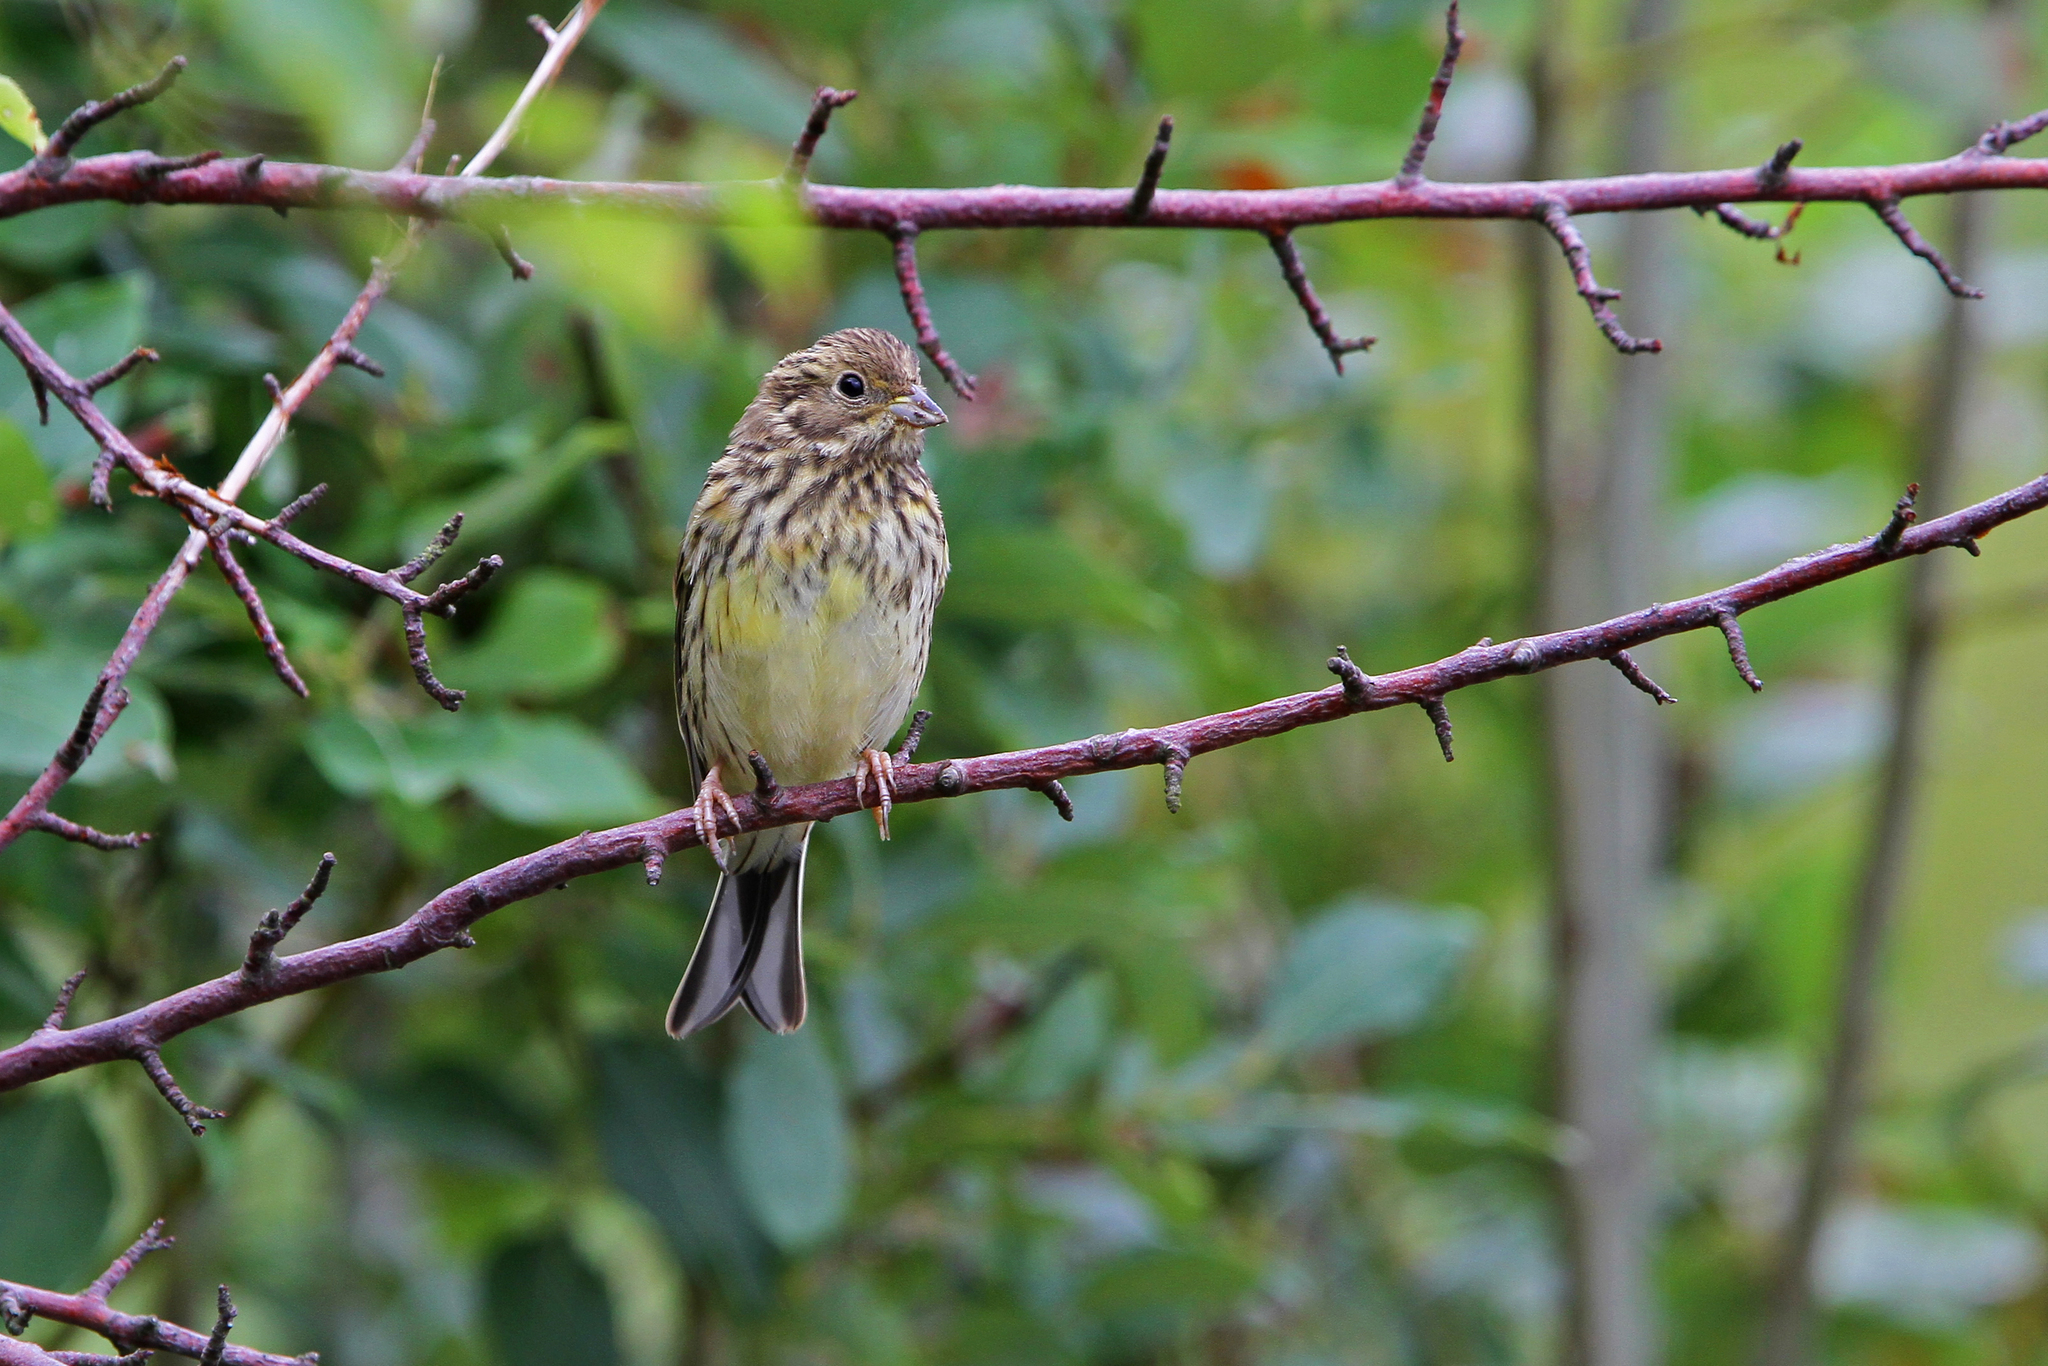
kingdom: Animalia
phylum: Chordata
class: Aves
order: Passeriformes
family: Emberizidae
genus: Emberiza
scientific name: Emberiza citrinella
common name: Yellowhammer
